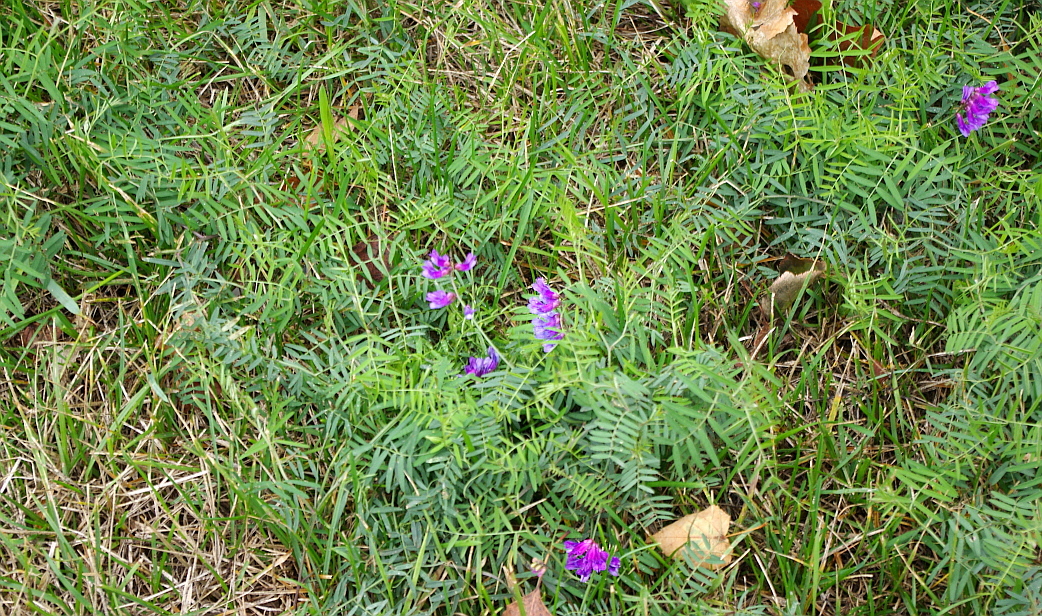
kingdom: Plantae
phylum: Tracheophyta
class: Magnoliopsida
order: Fabales
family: Fabaceae
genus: Vicia
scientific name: Vicia cracca
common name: Bird vetch
